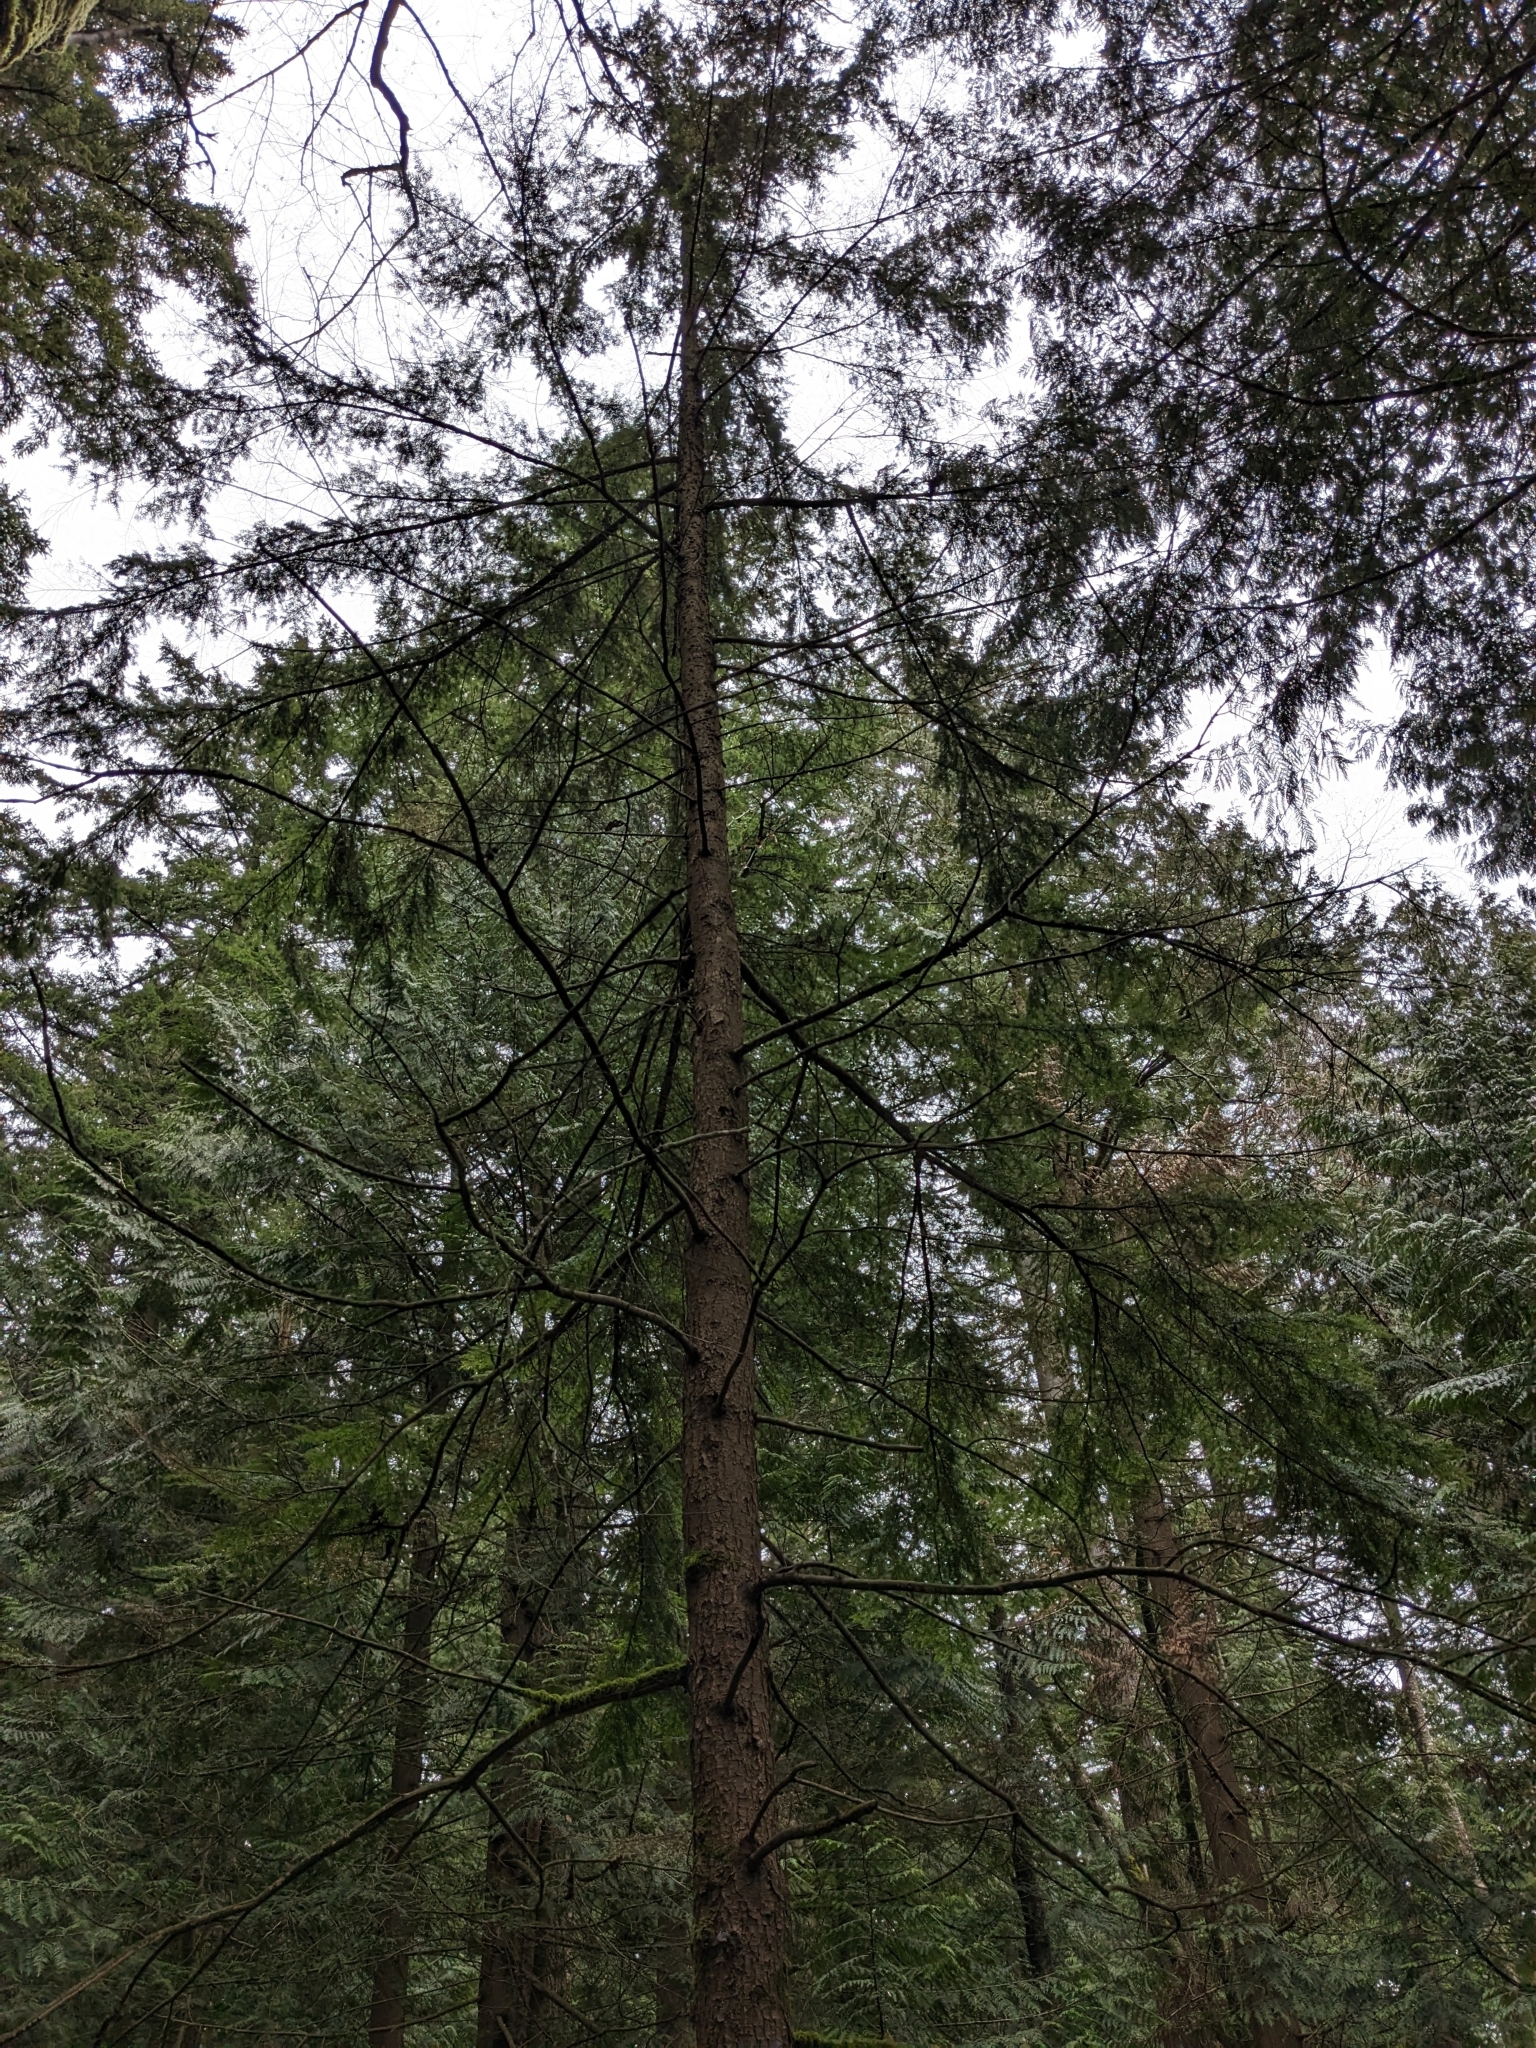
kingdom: Plantae
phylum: Tracheophyta
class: Pinopsida
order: Pinales
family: Pinaceae
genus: Tsuga
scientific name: Tsuga heterophylla
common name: Western hemlock
